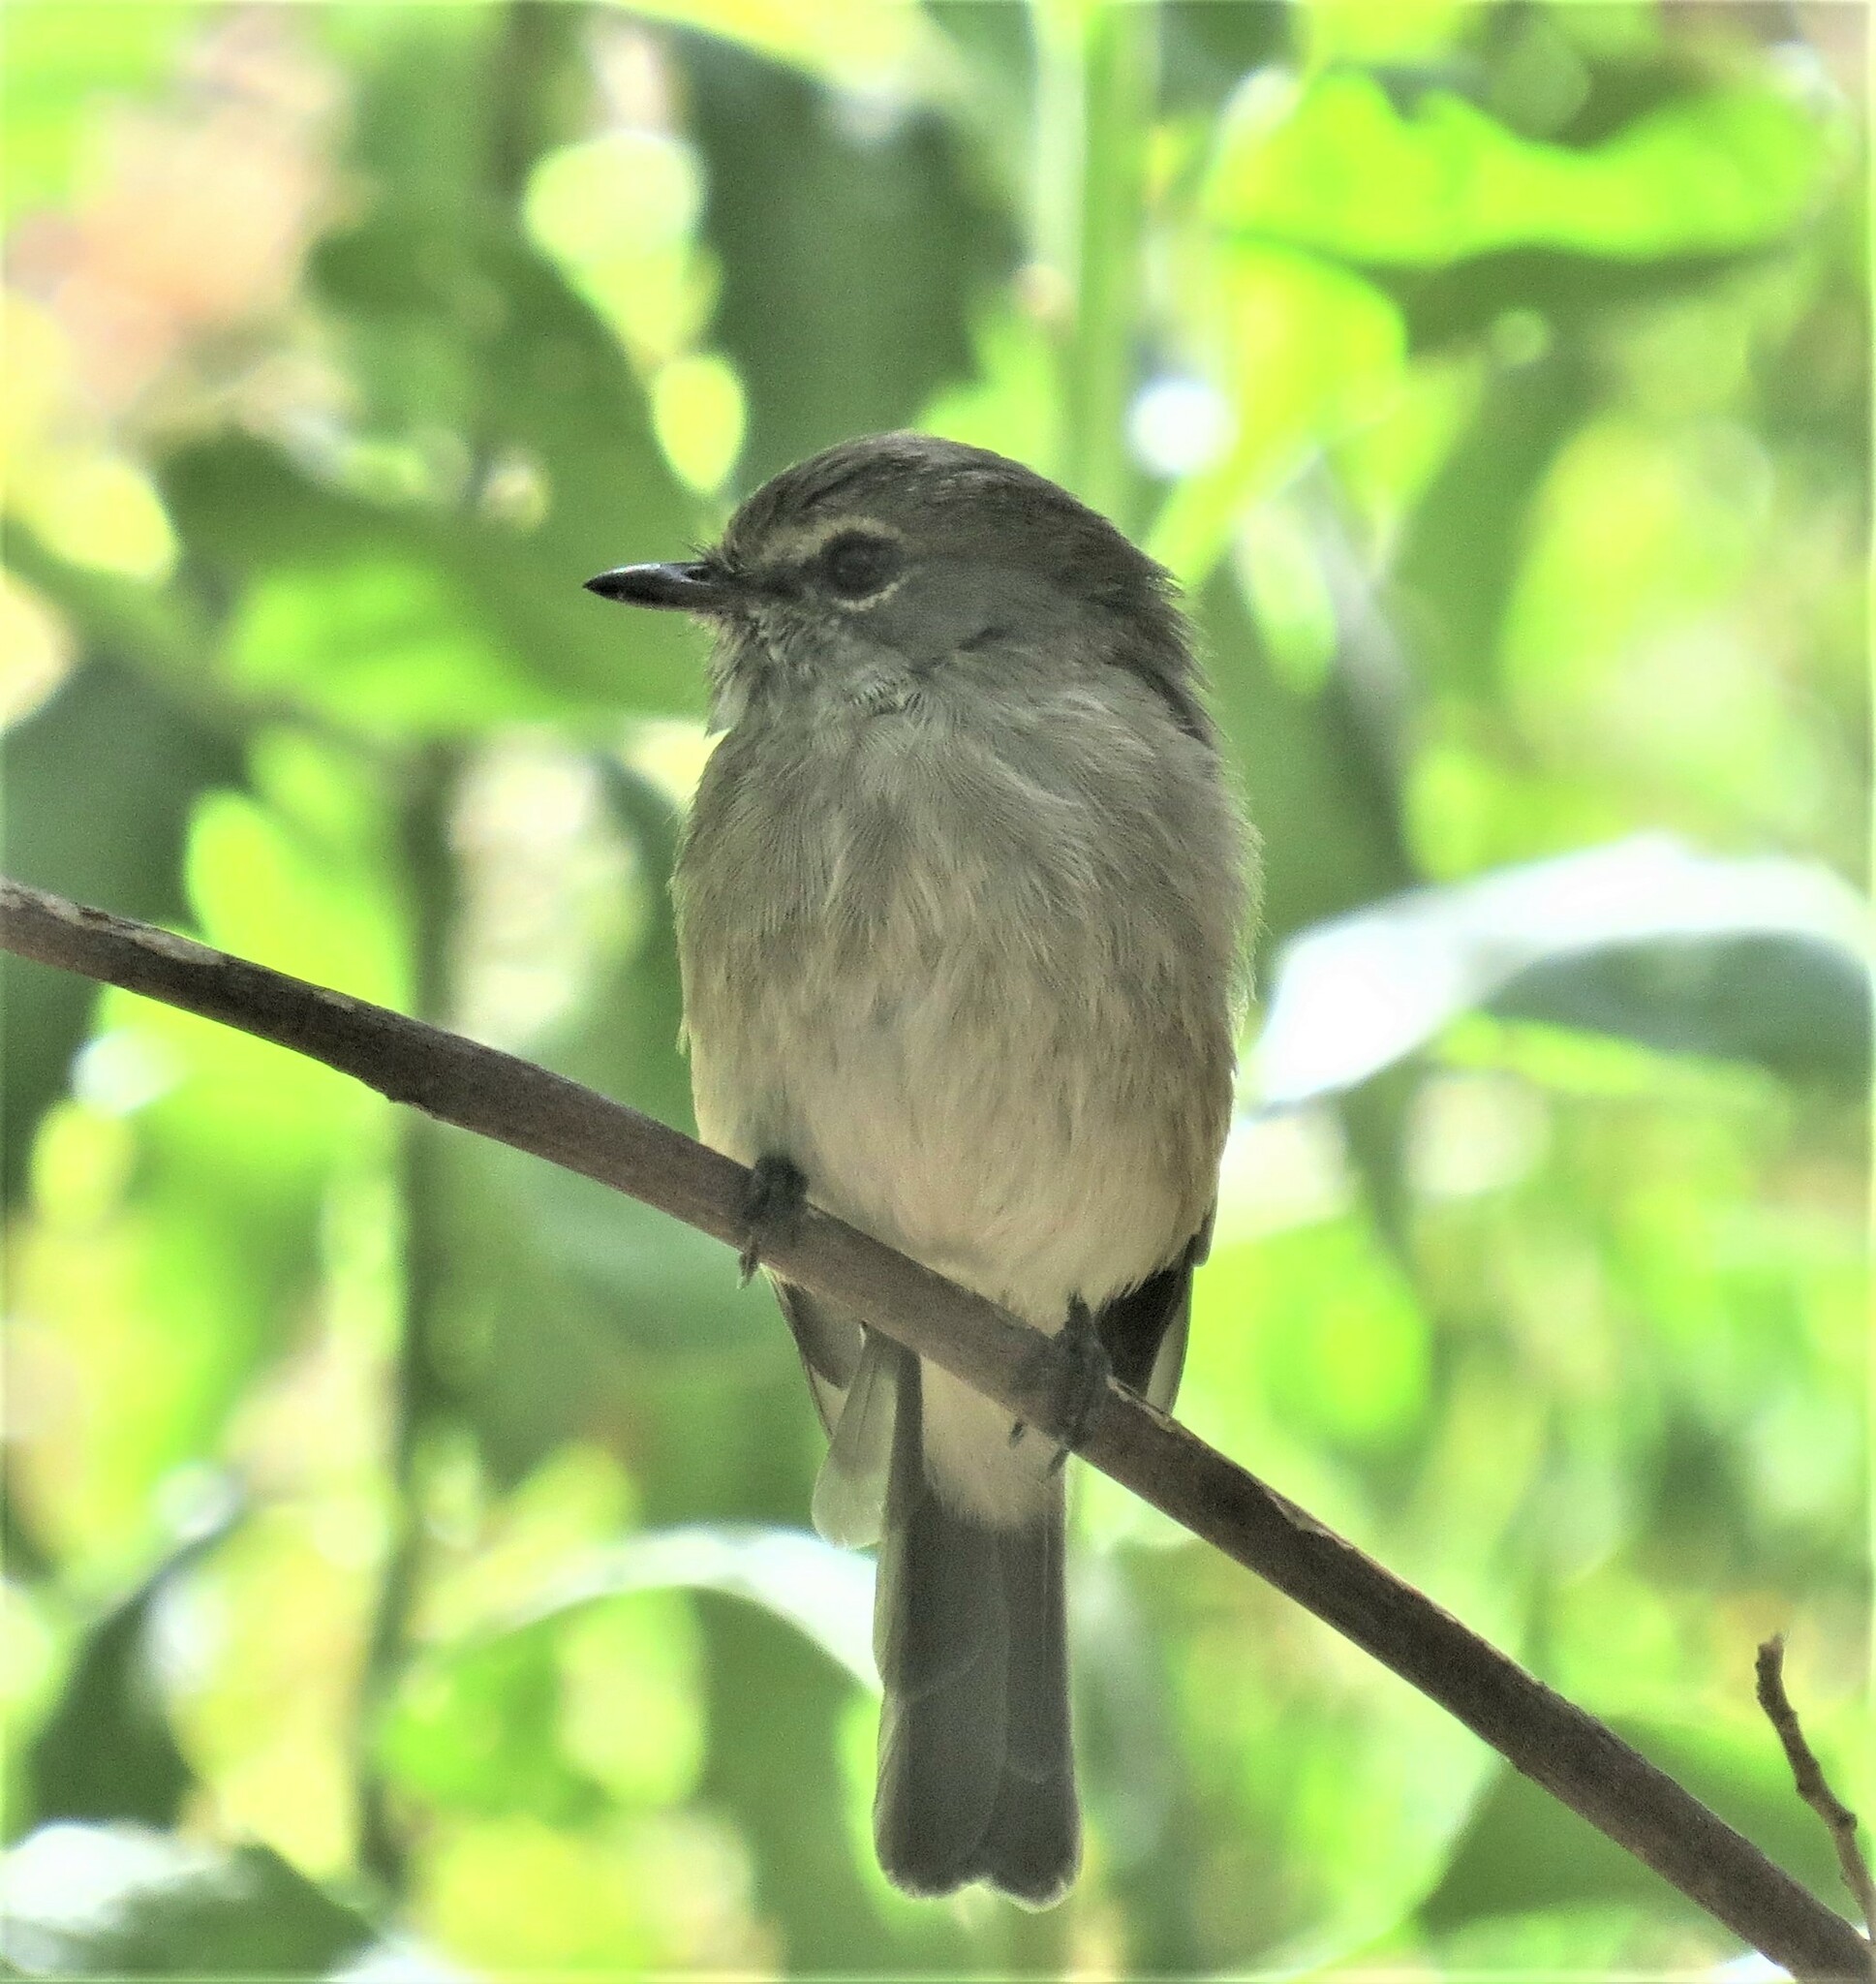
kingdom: Animalia
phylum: Chordata
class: Aves
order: Passeriformes
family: Muscicapidae
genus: Muscicapa
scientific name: Muscicapa adusta
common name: African dusky flycatcher
